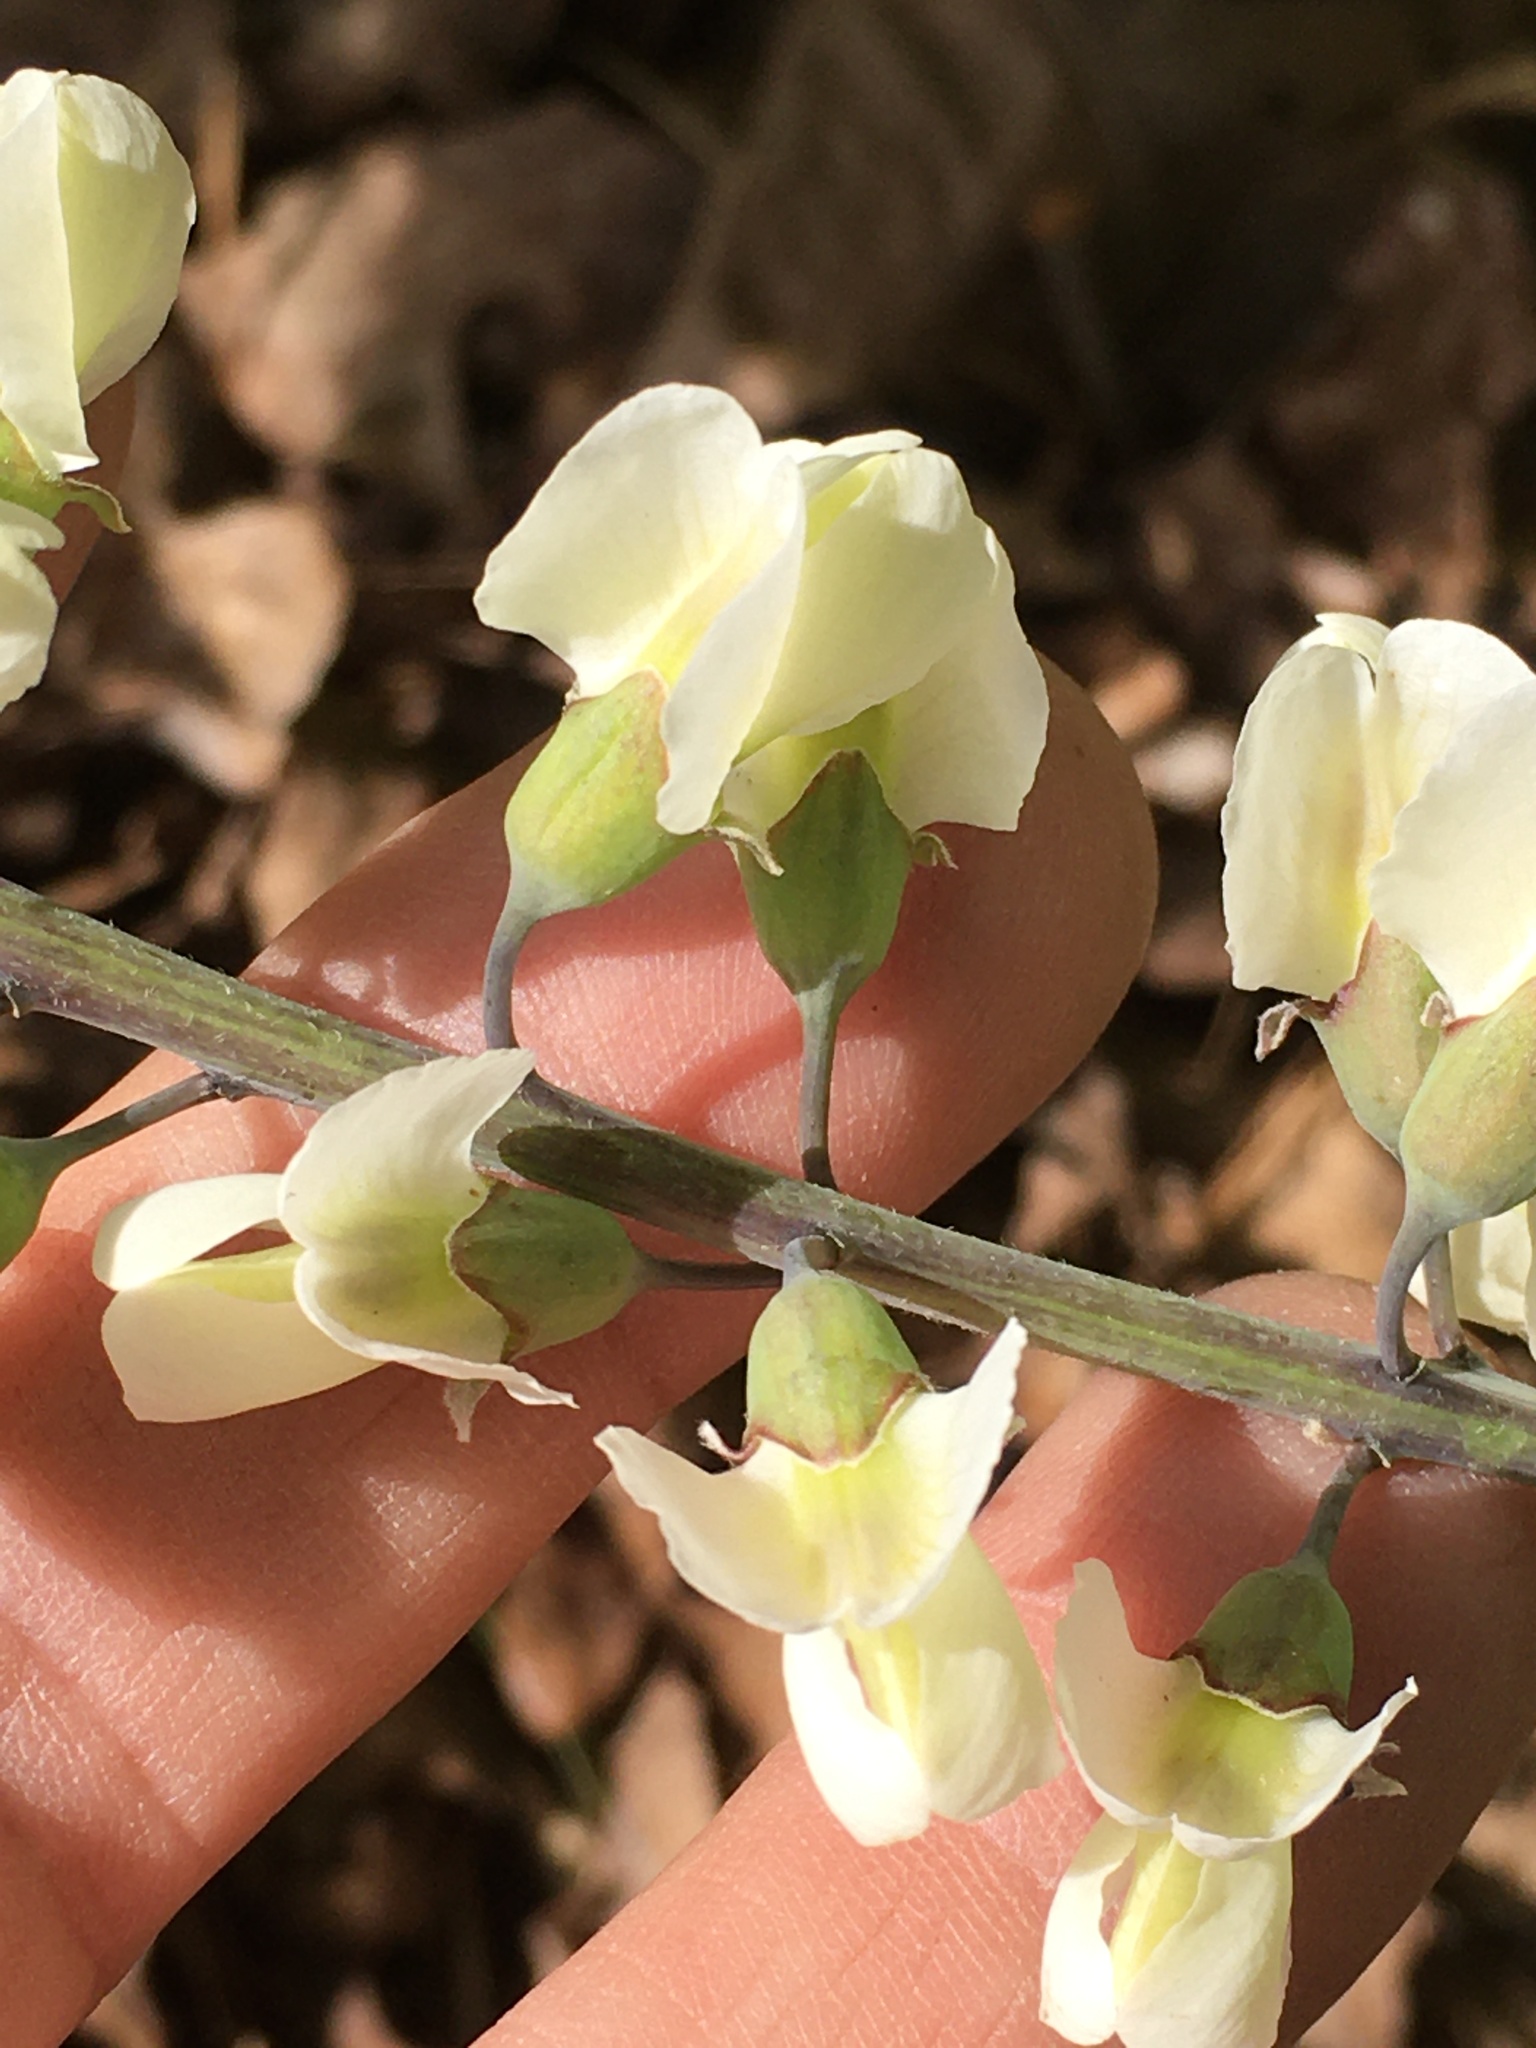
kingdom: Plantae
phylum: Tracheophyta
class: Magnoliopsida
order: Fabales
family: Fabaceae
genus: Baptisia
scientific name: Baptisia albescens
